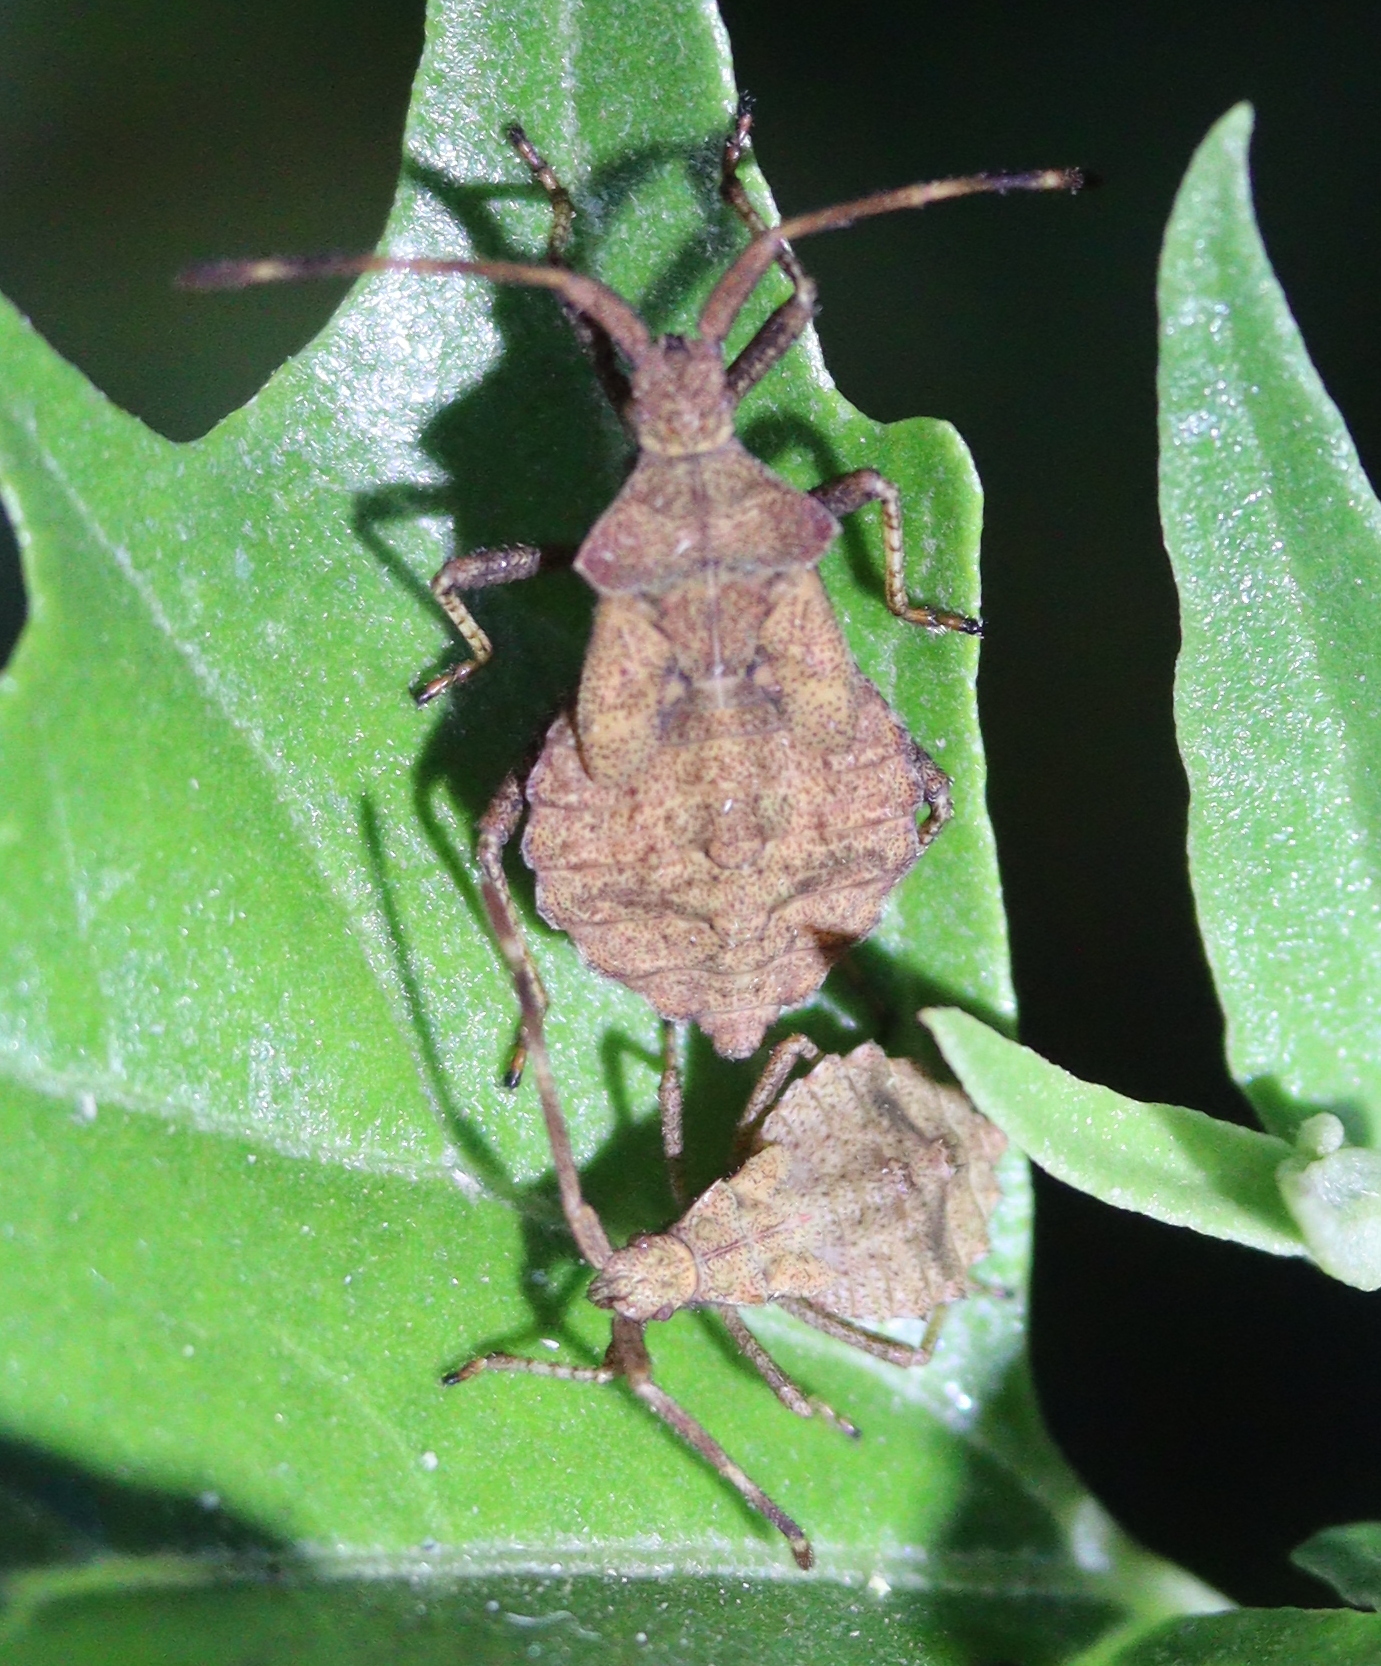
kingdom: Animalia
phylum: Arthropoda
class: Insecta
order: Hemiptera
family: Coreidae
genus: Coreus
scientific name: Coreus marginatus
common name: Dock bug
